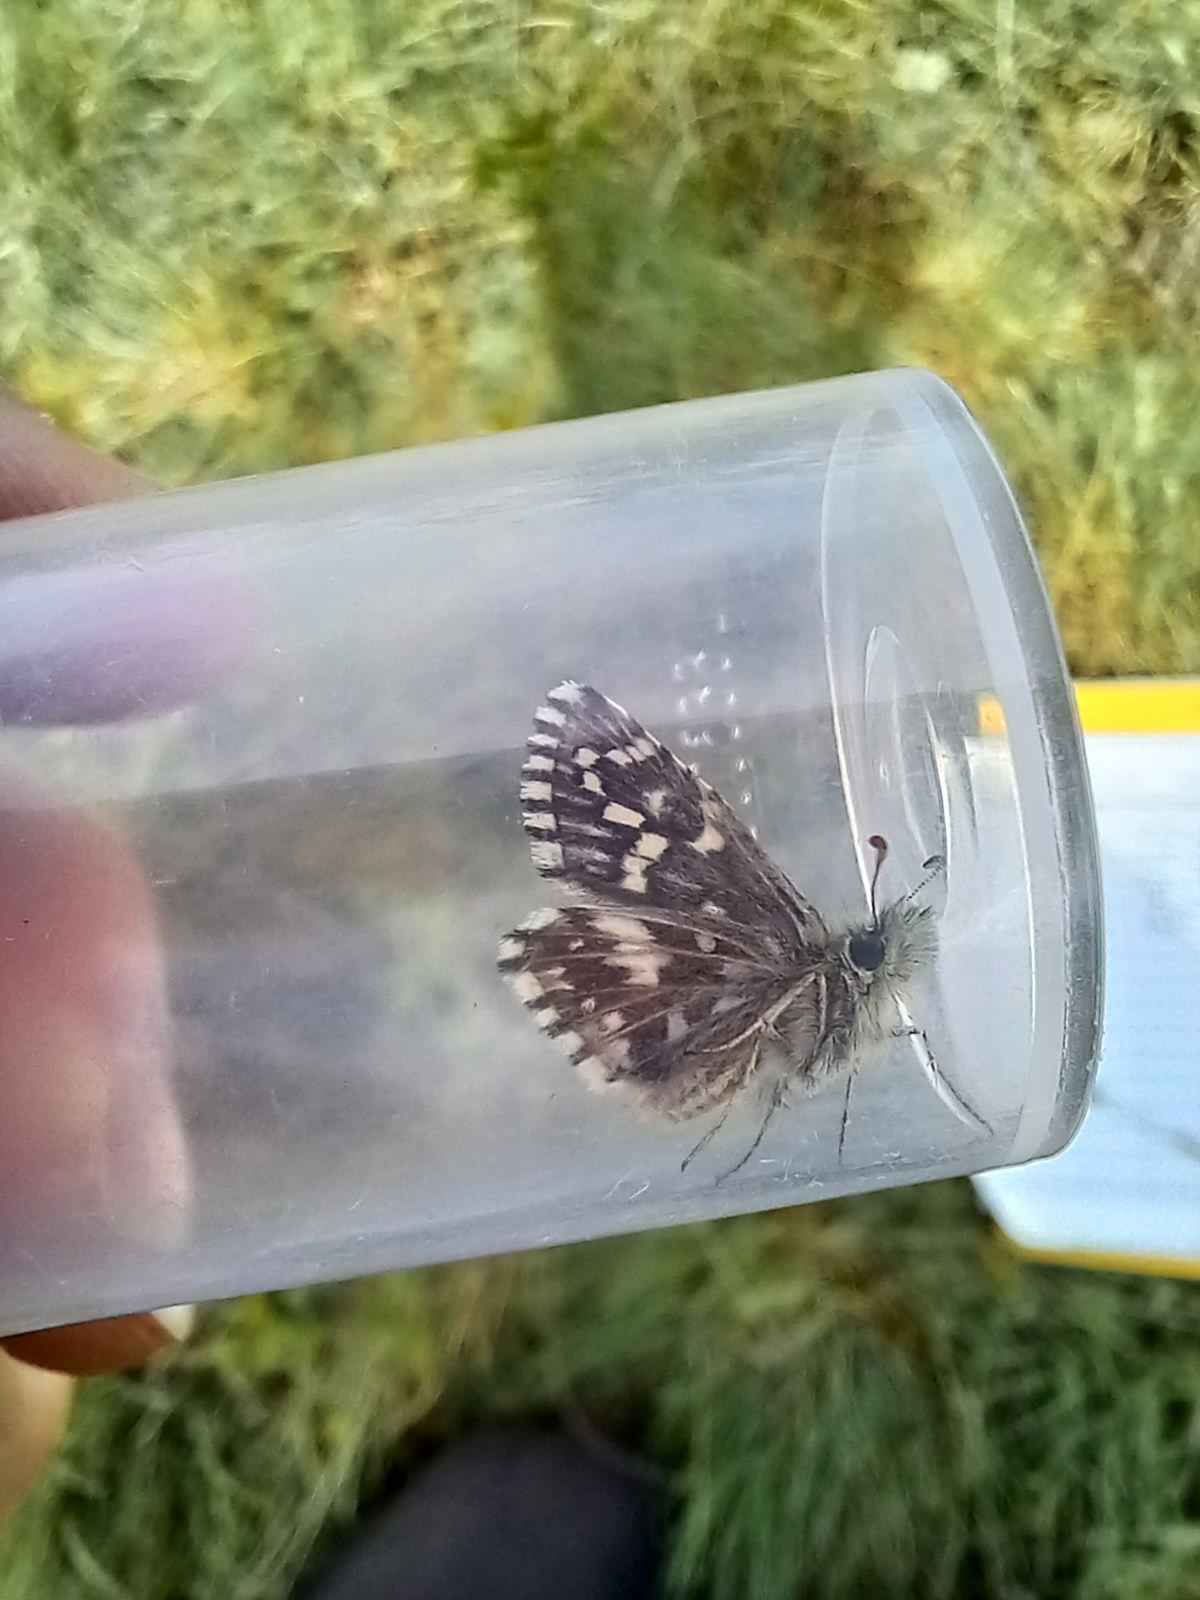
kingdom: Animalia
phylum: Arthropoda
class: Insecta
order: Lepidoptera
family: Hesperiidae
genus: Pyrgus
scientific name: Pyrgus malvae
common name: Grizzled skipper
